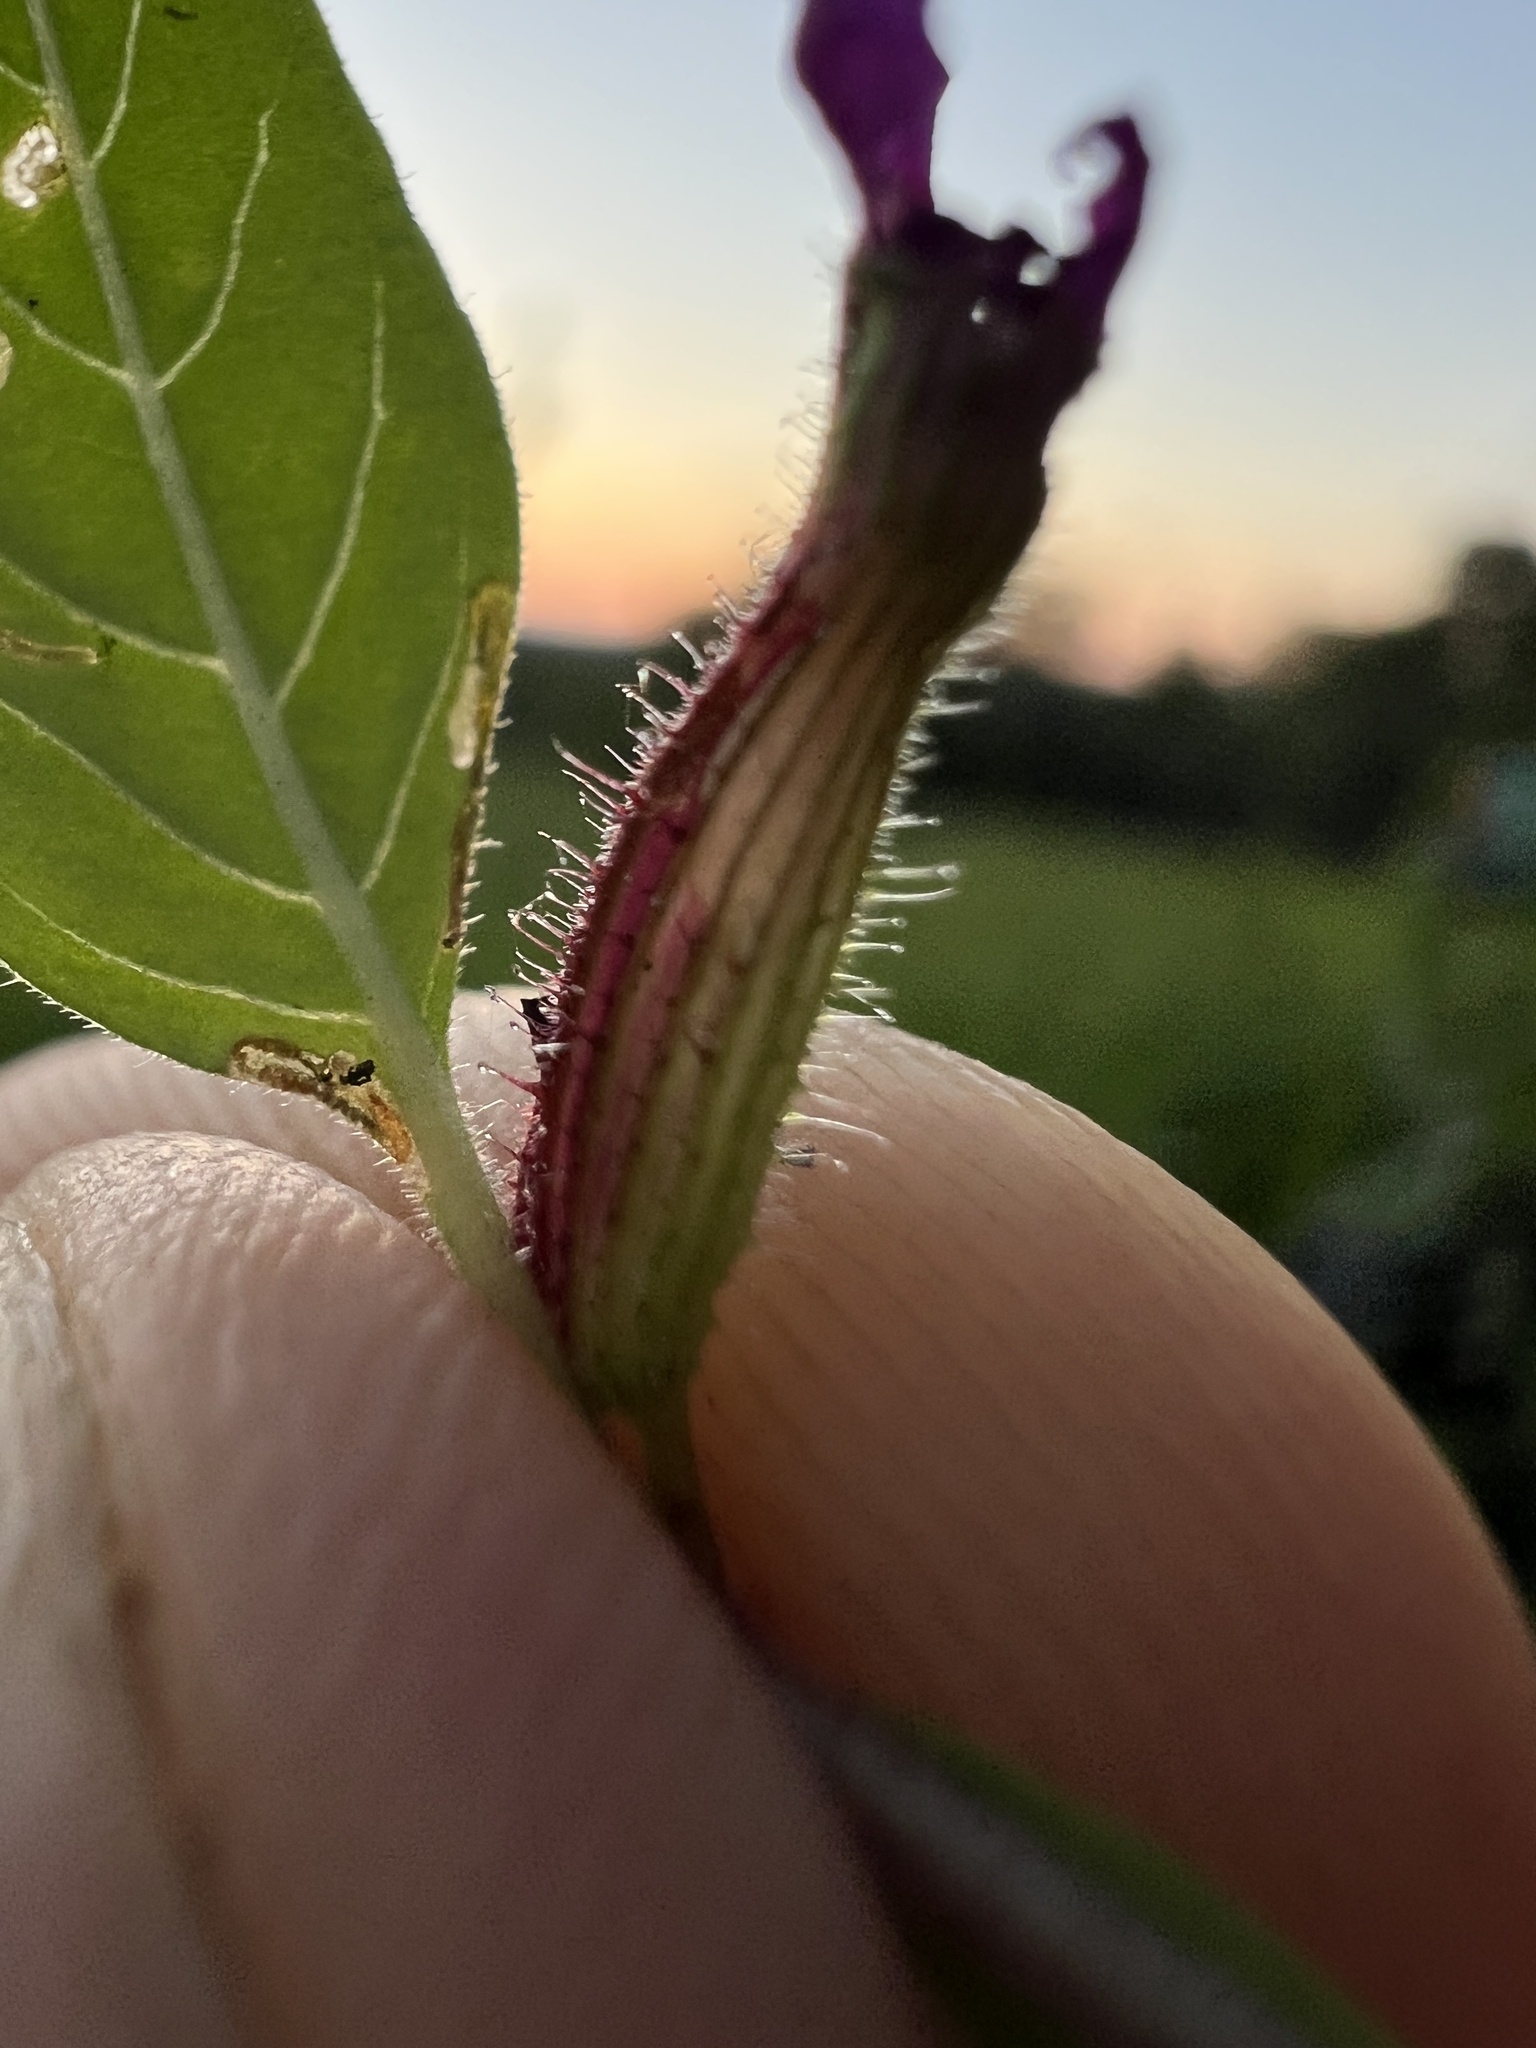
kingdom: Plantae
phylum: Tracheophyta
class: Magnoliopsida
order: Myrtales
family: Lythraceae
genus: Cuphea
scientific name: Cuphea viscosissima
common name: Clammy cuphea
